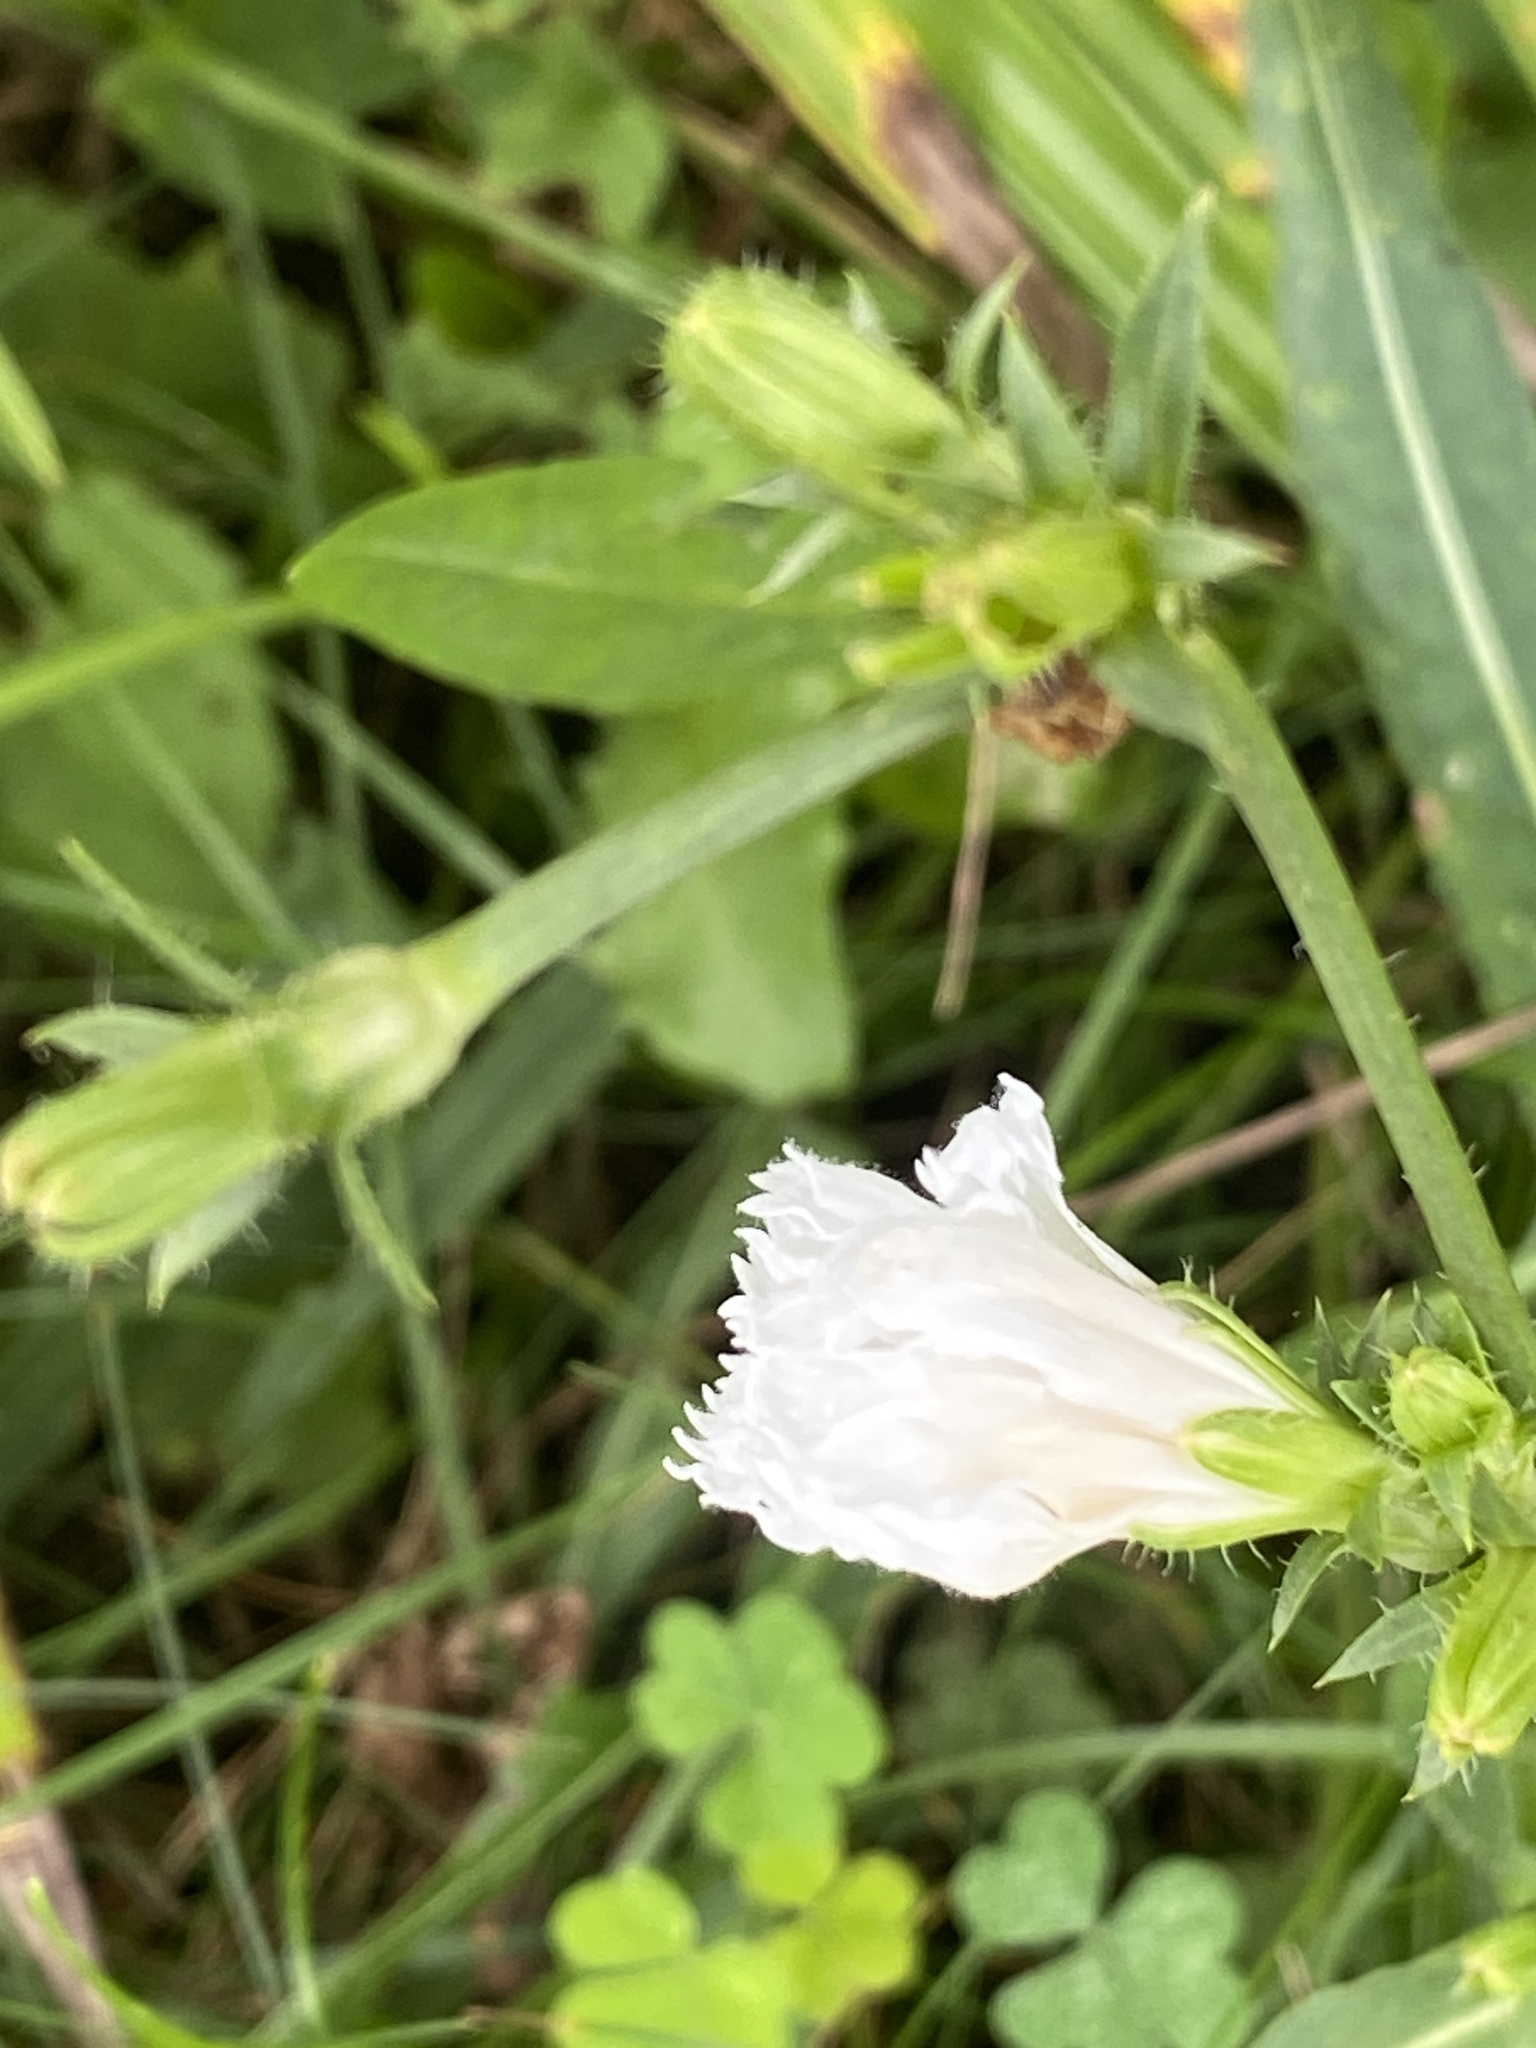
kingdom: Plantae
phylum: Tracheophyta
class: Magnoliopsida
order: Asterales
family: Asteraceae
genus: Cichorium
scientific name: Cichorium intybus
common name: Chicory
